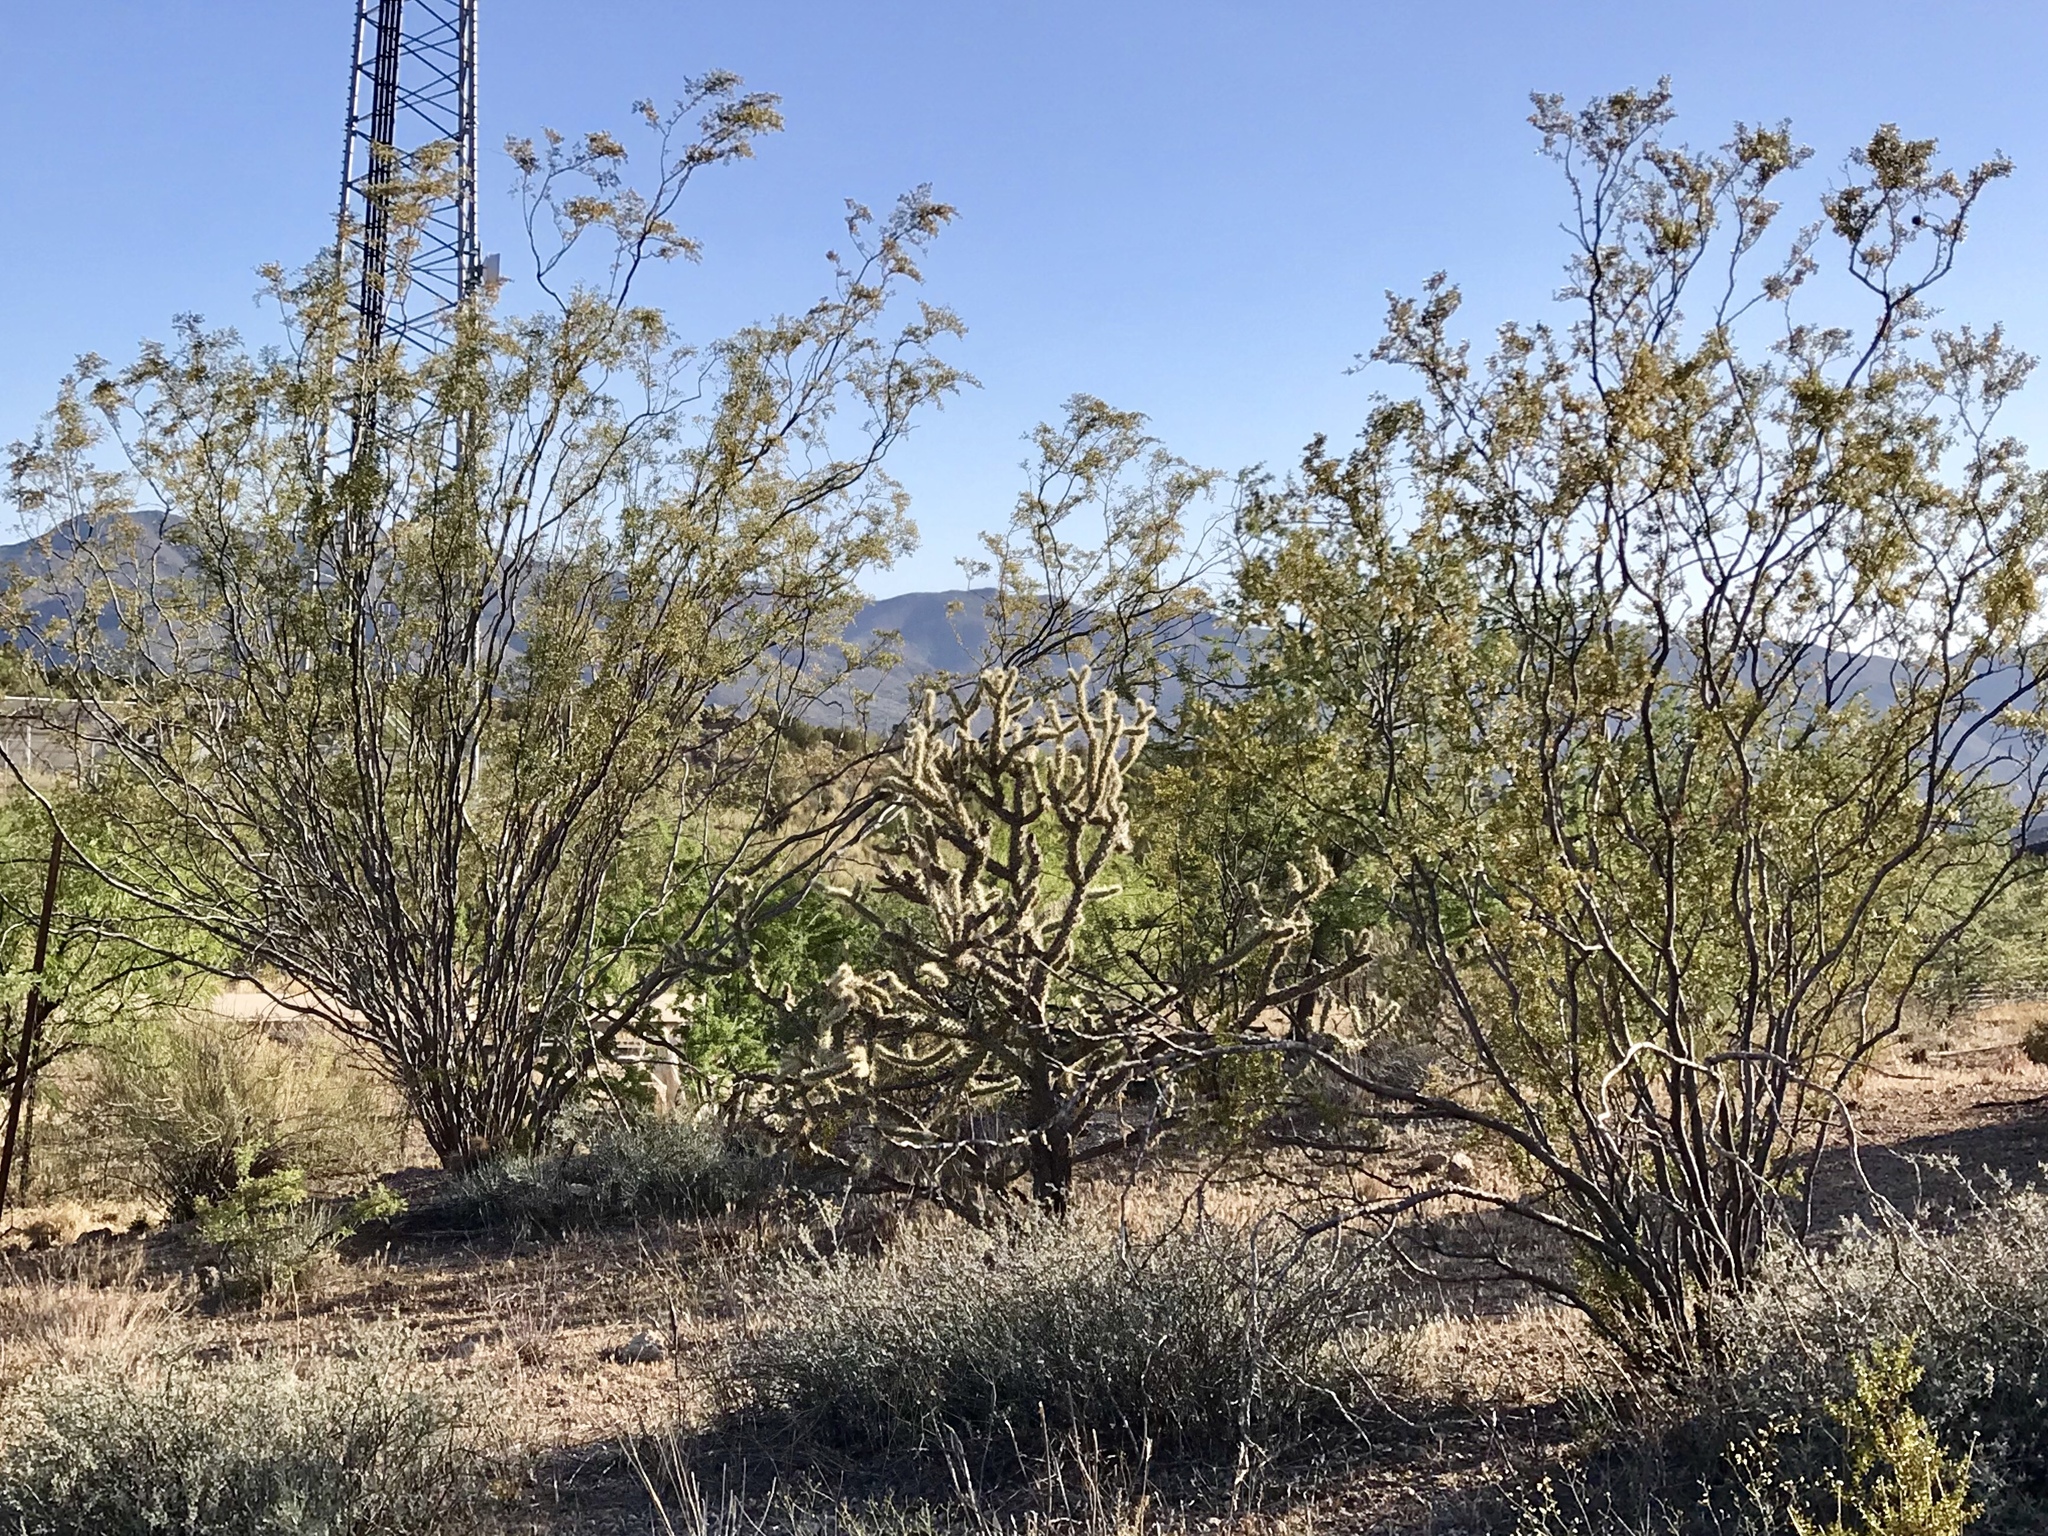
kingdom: Plantae
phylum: Tracheophyta
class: Magnoliopsida
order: Zygophyllales
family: Zygophyllaceae
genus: Larrea
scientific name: Larrea tridentata
